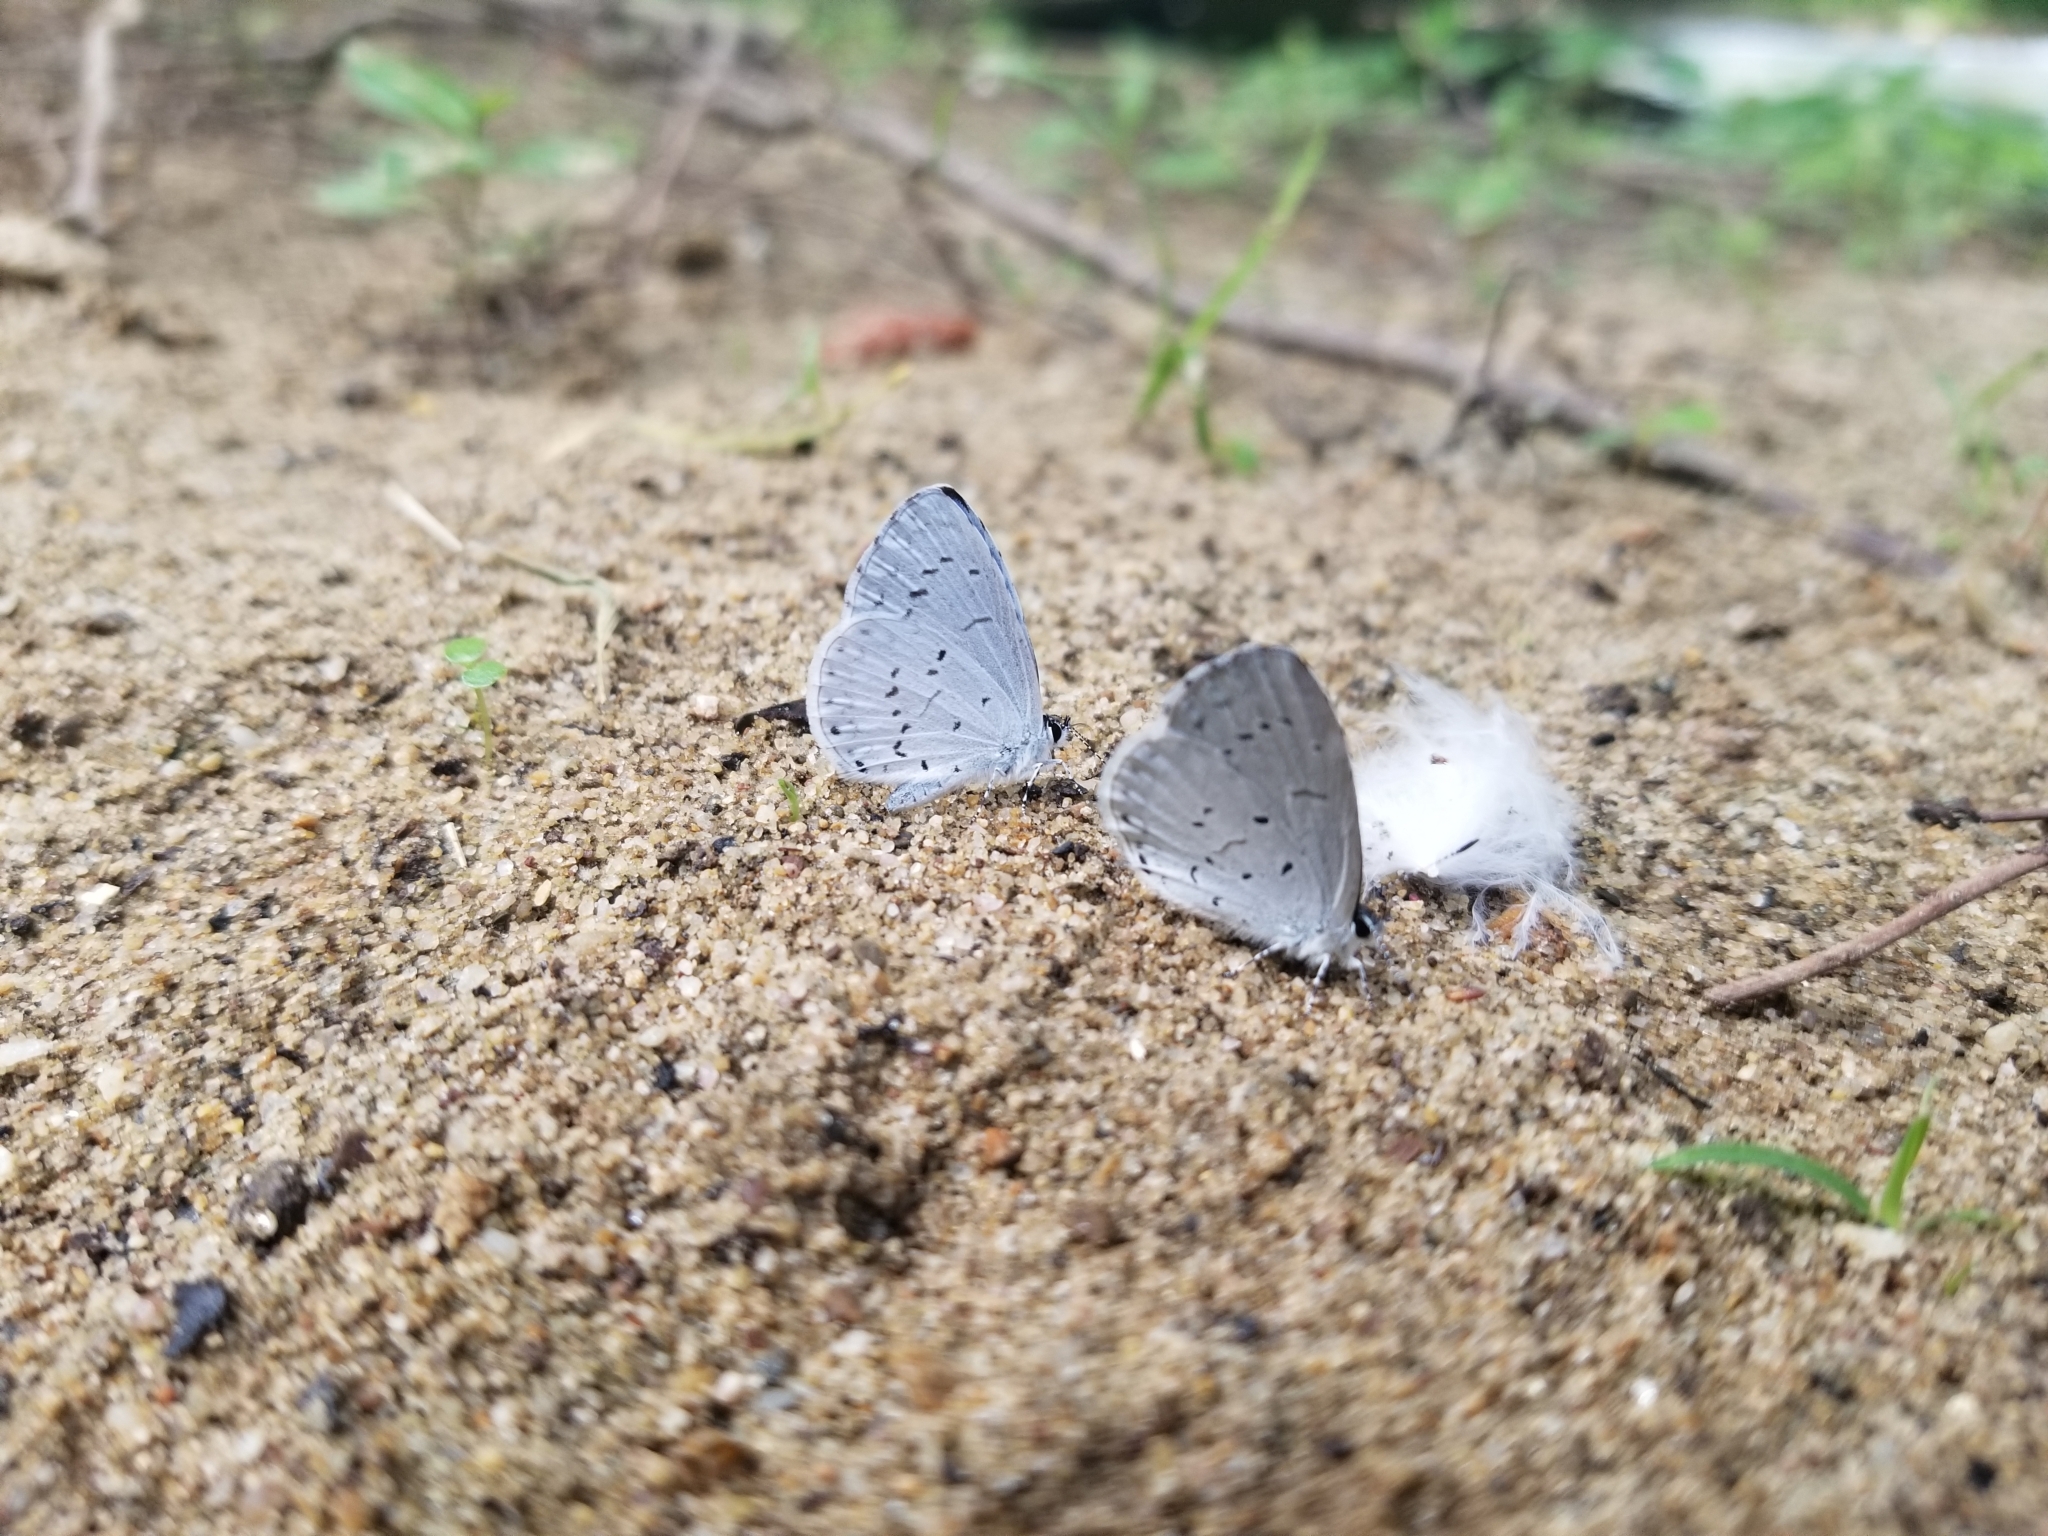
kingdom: Animalia
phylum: Arthropoda
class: Insecta
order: Lepidoptera
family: Lycaenidae
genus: Cyaniris
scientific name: Cyaniris neglecta
